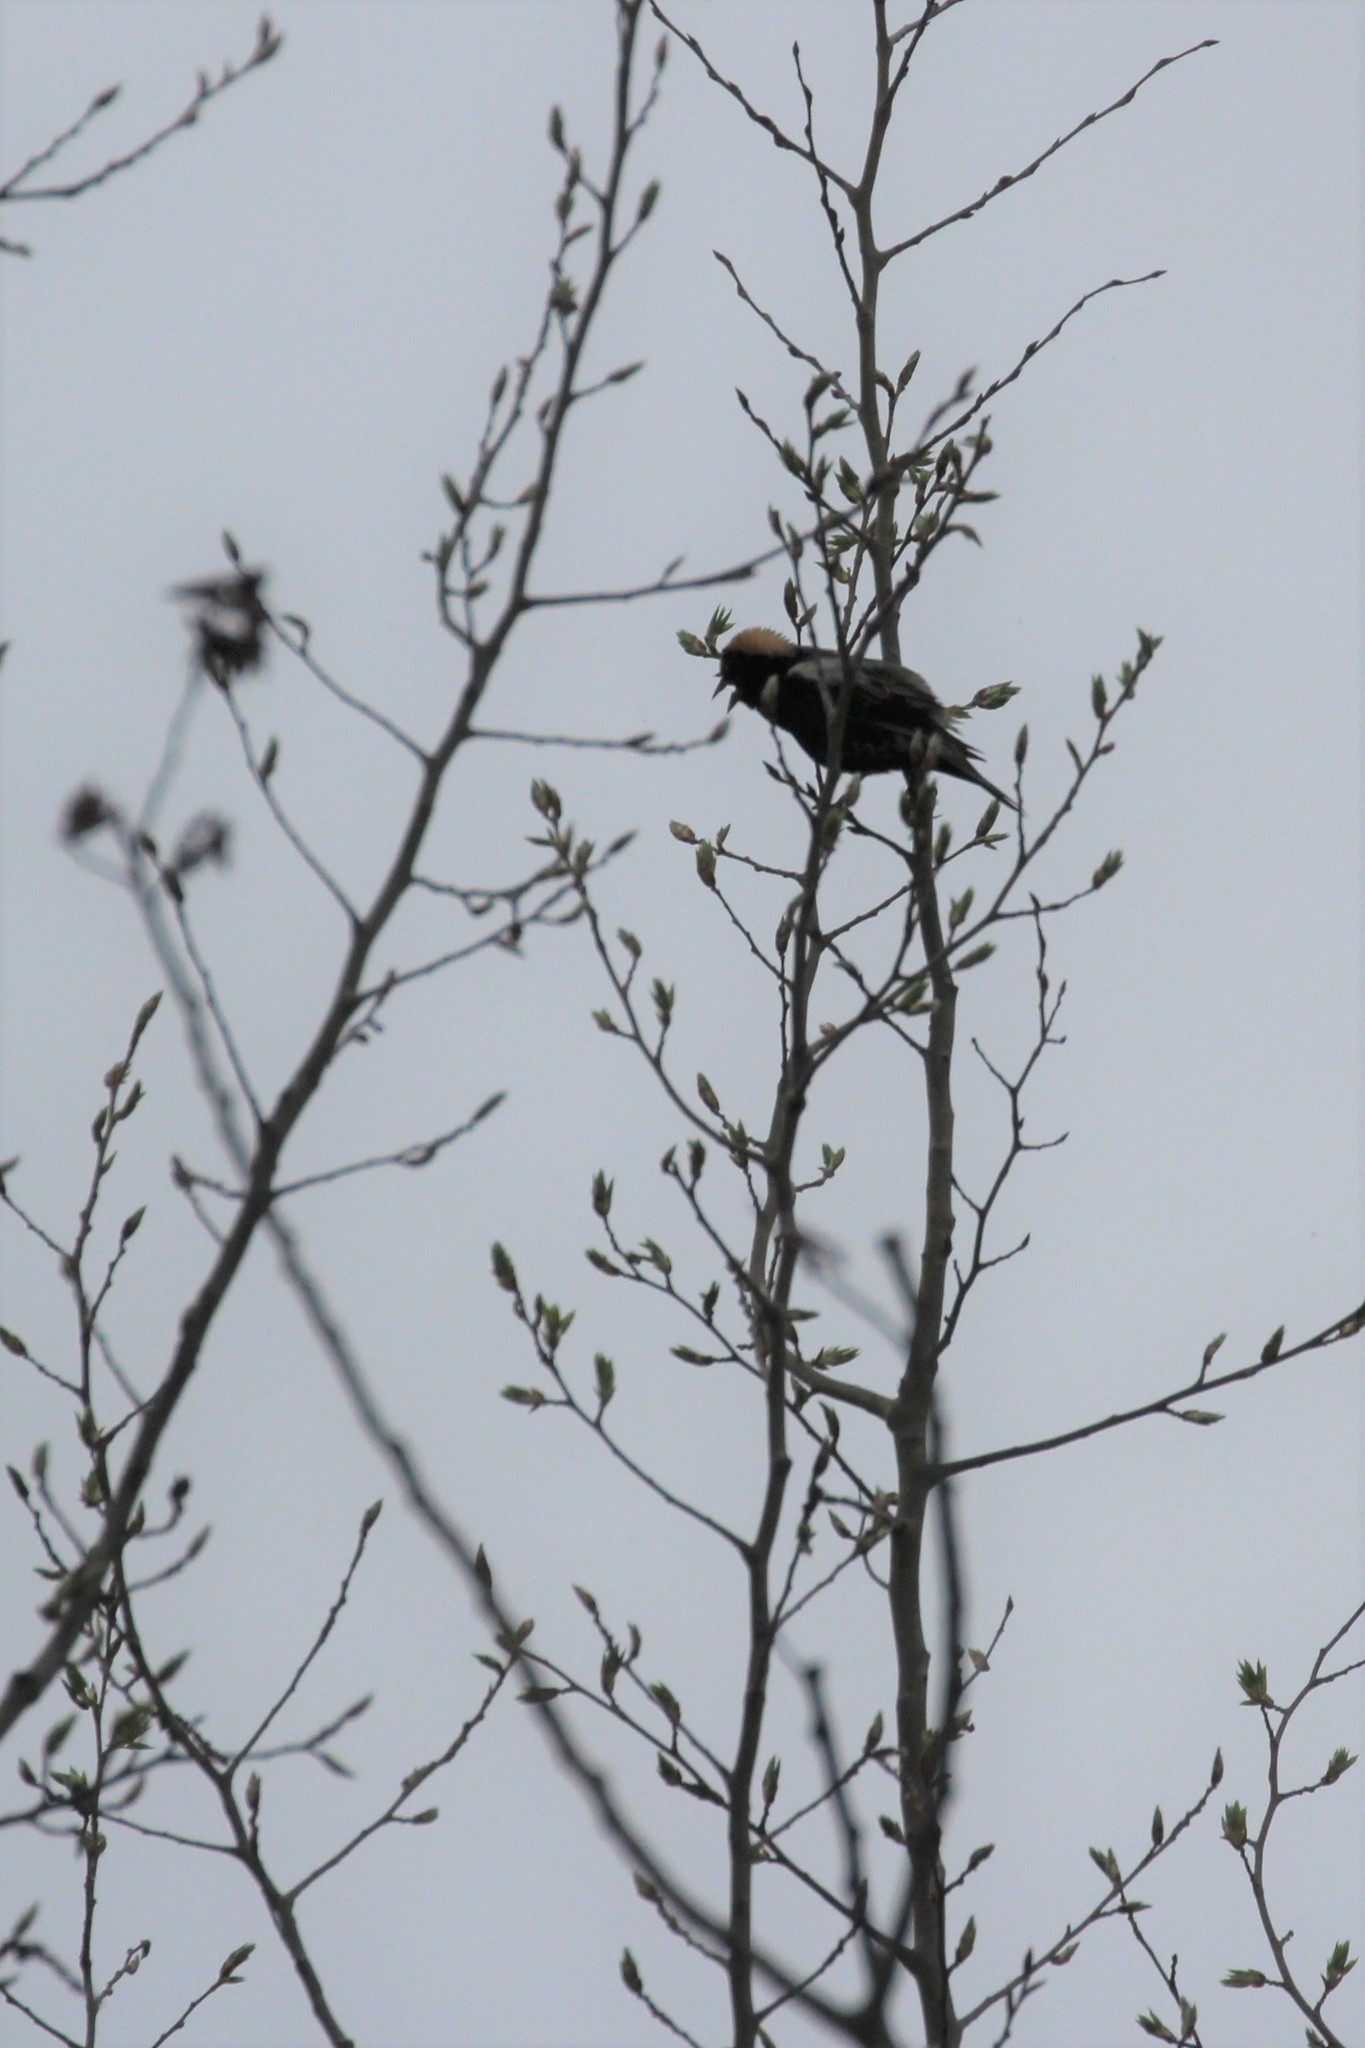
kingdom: Animalia
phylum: Chordata
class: Aves
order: Passeriformes
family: Icteridae
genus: Dolichonyx
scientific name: Dolichonyx oryzivorus
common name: Bobolink
